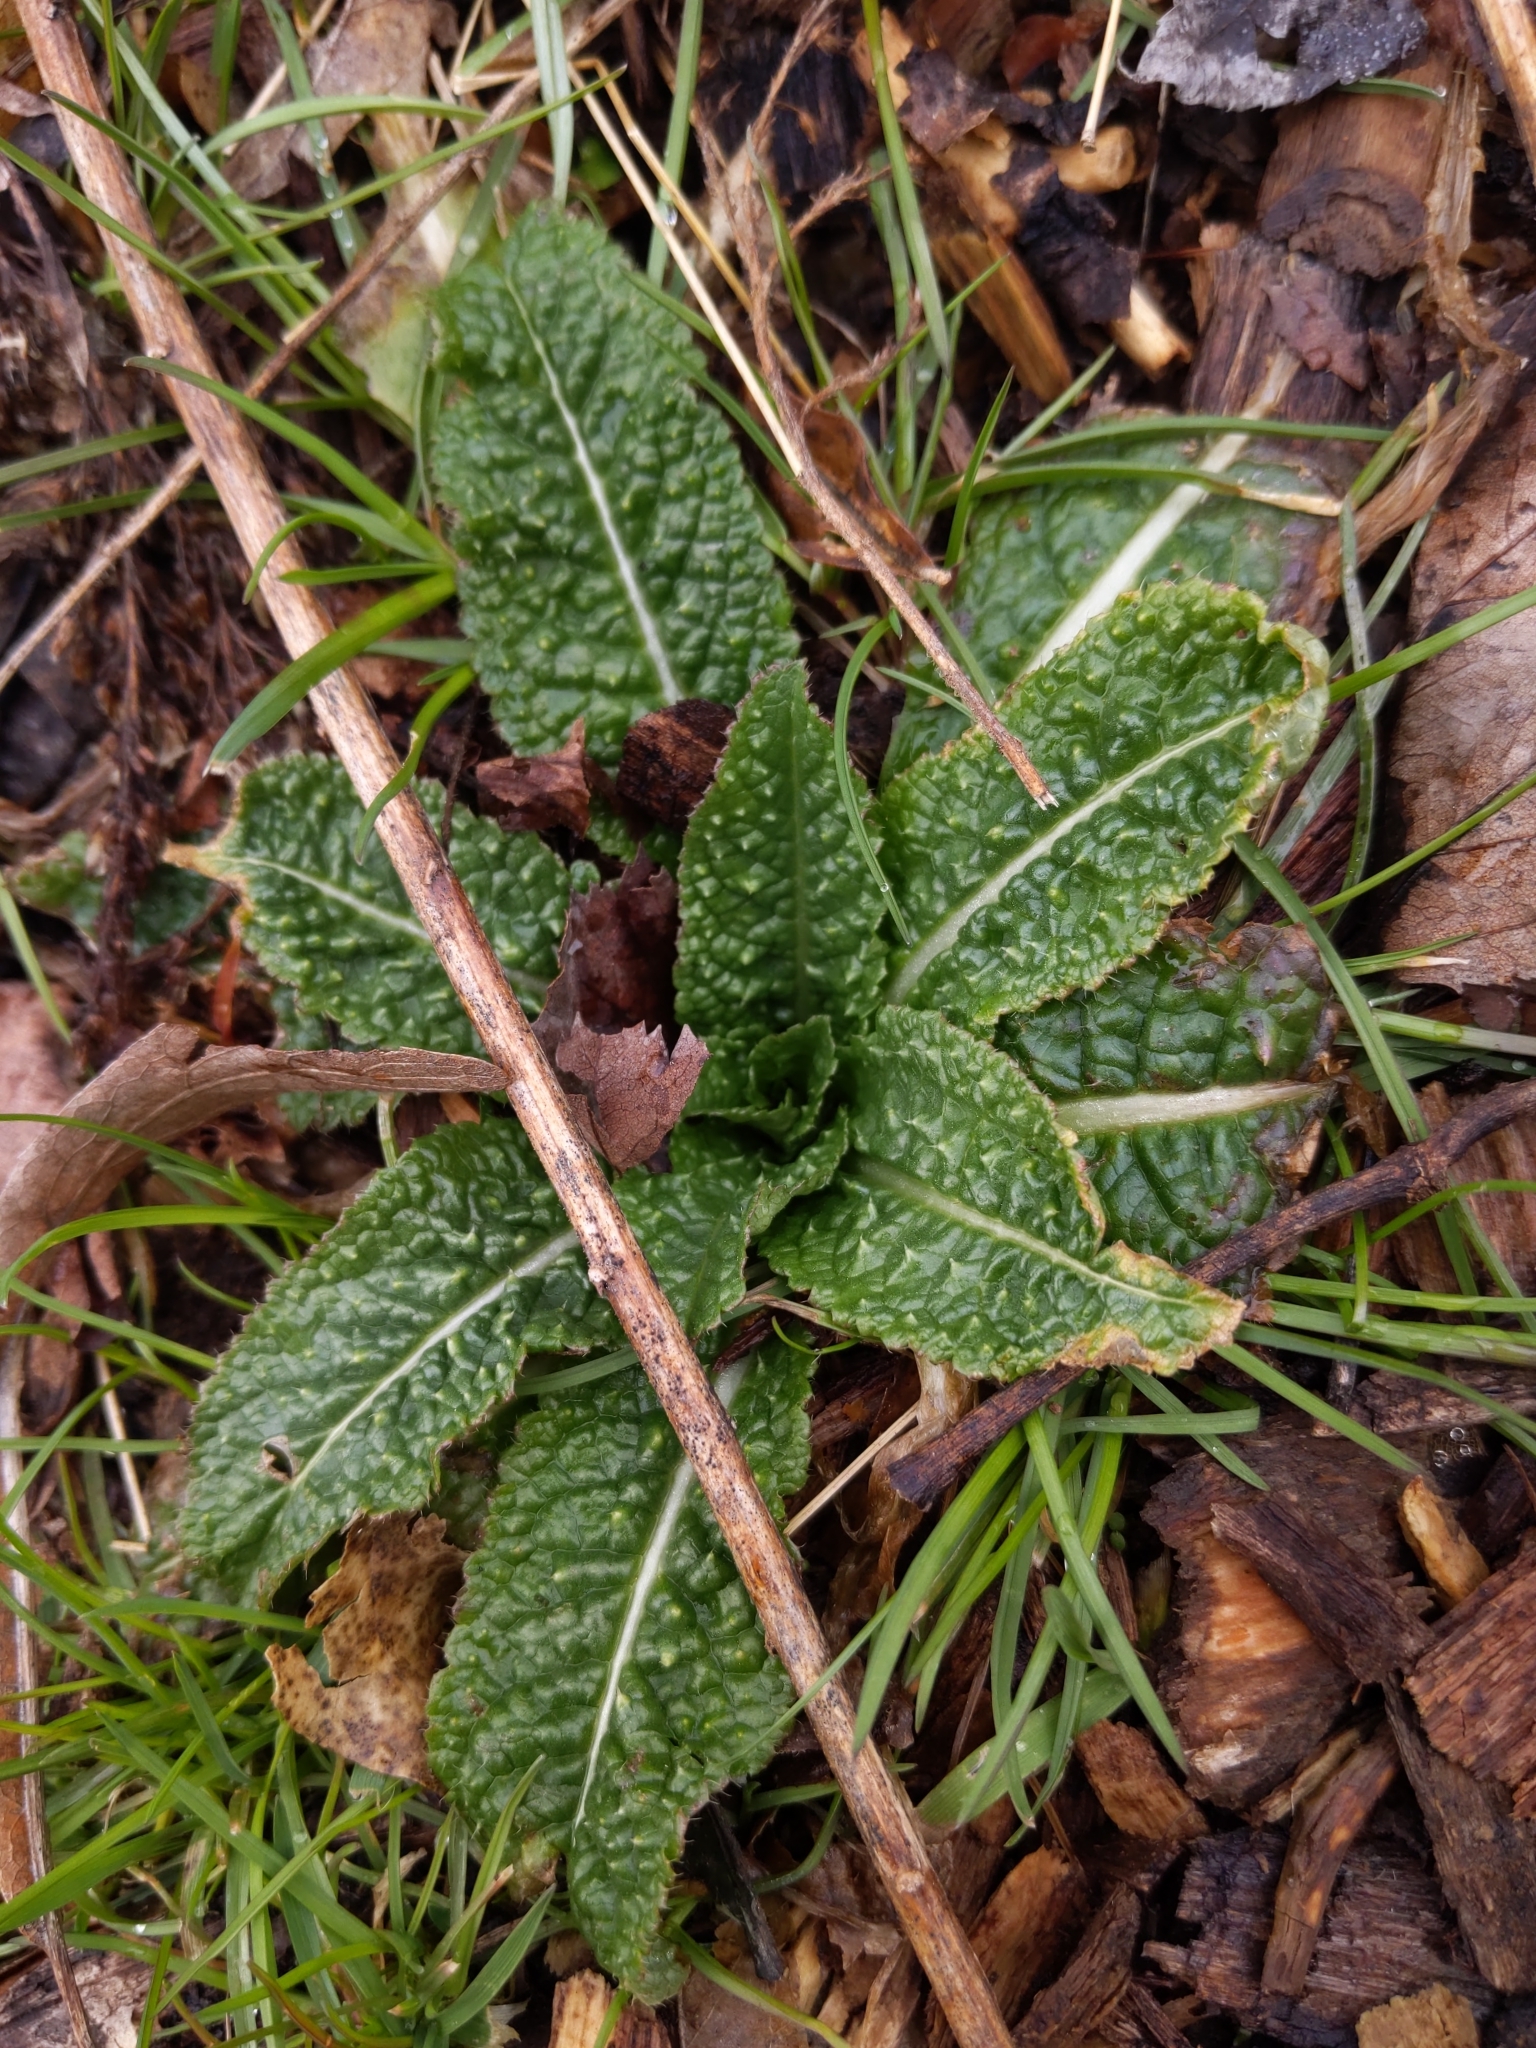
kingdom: Plantae
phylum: Tracheophyta
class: Magnoliopsida
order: Dipsacales
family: Caprifoliaceae
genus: Dipsacus
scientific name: Dipsacus fullonum
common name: Teasel
